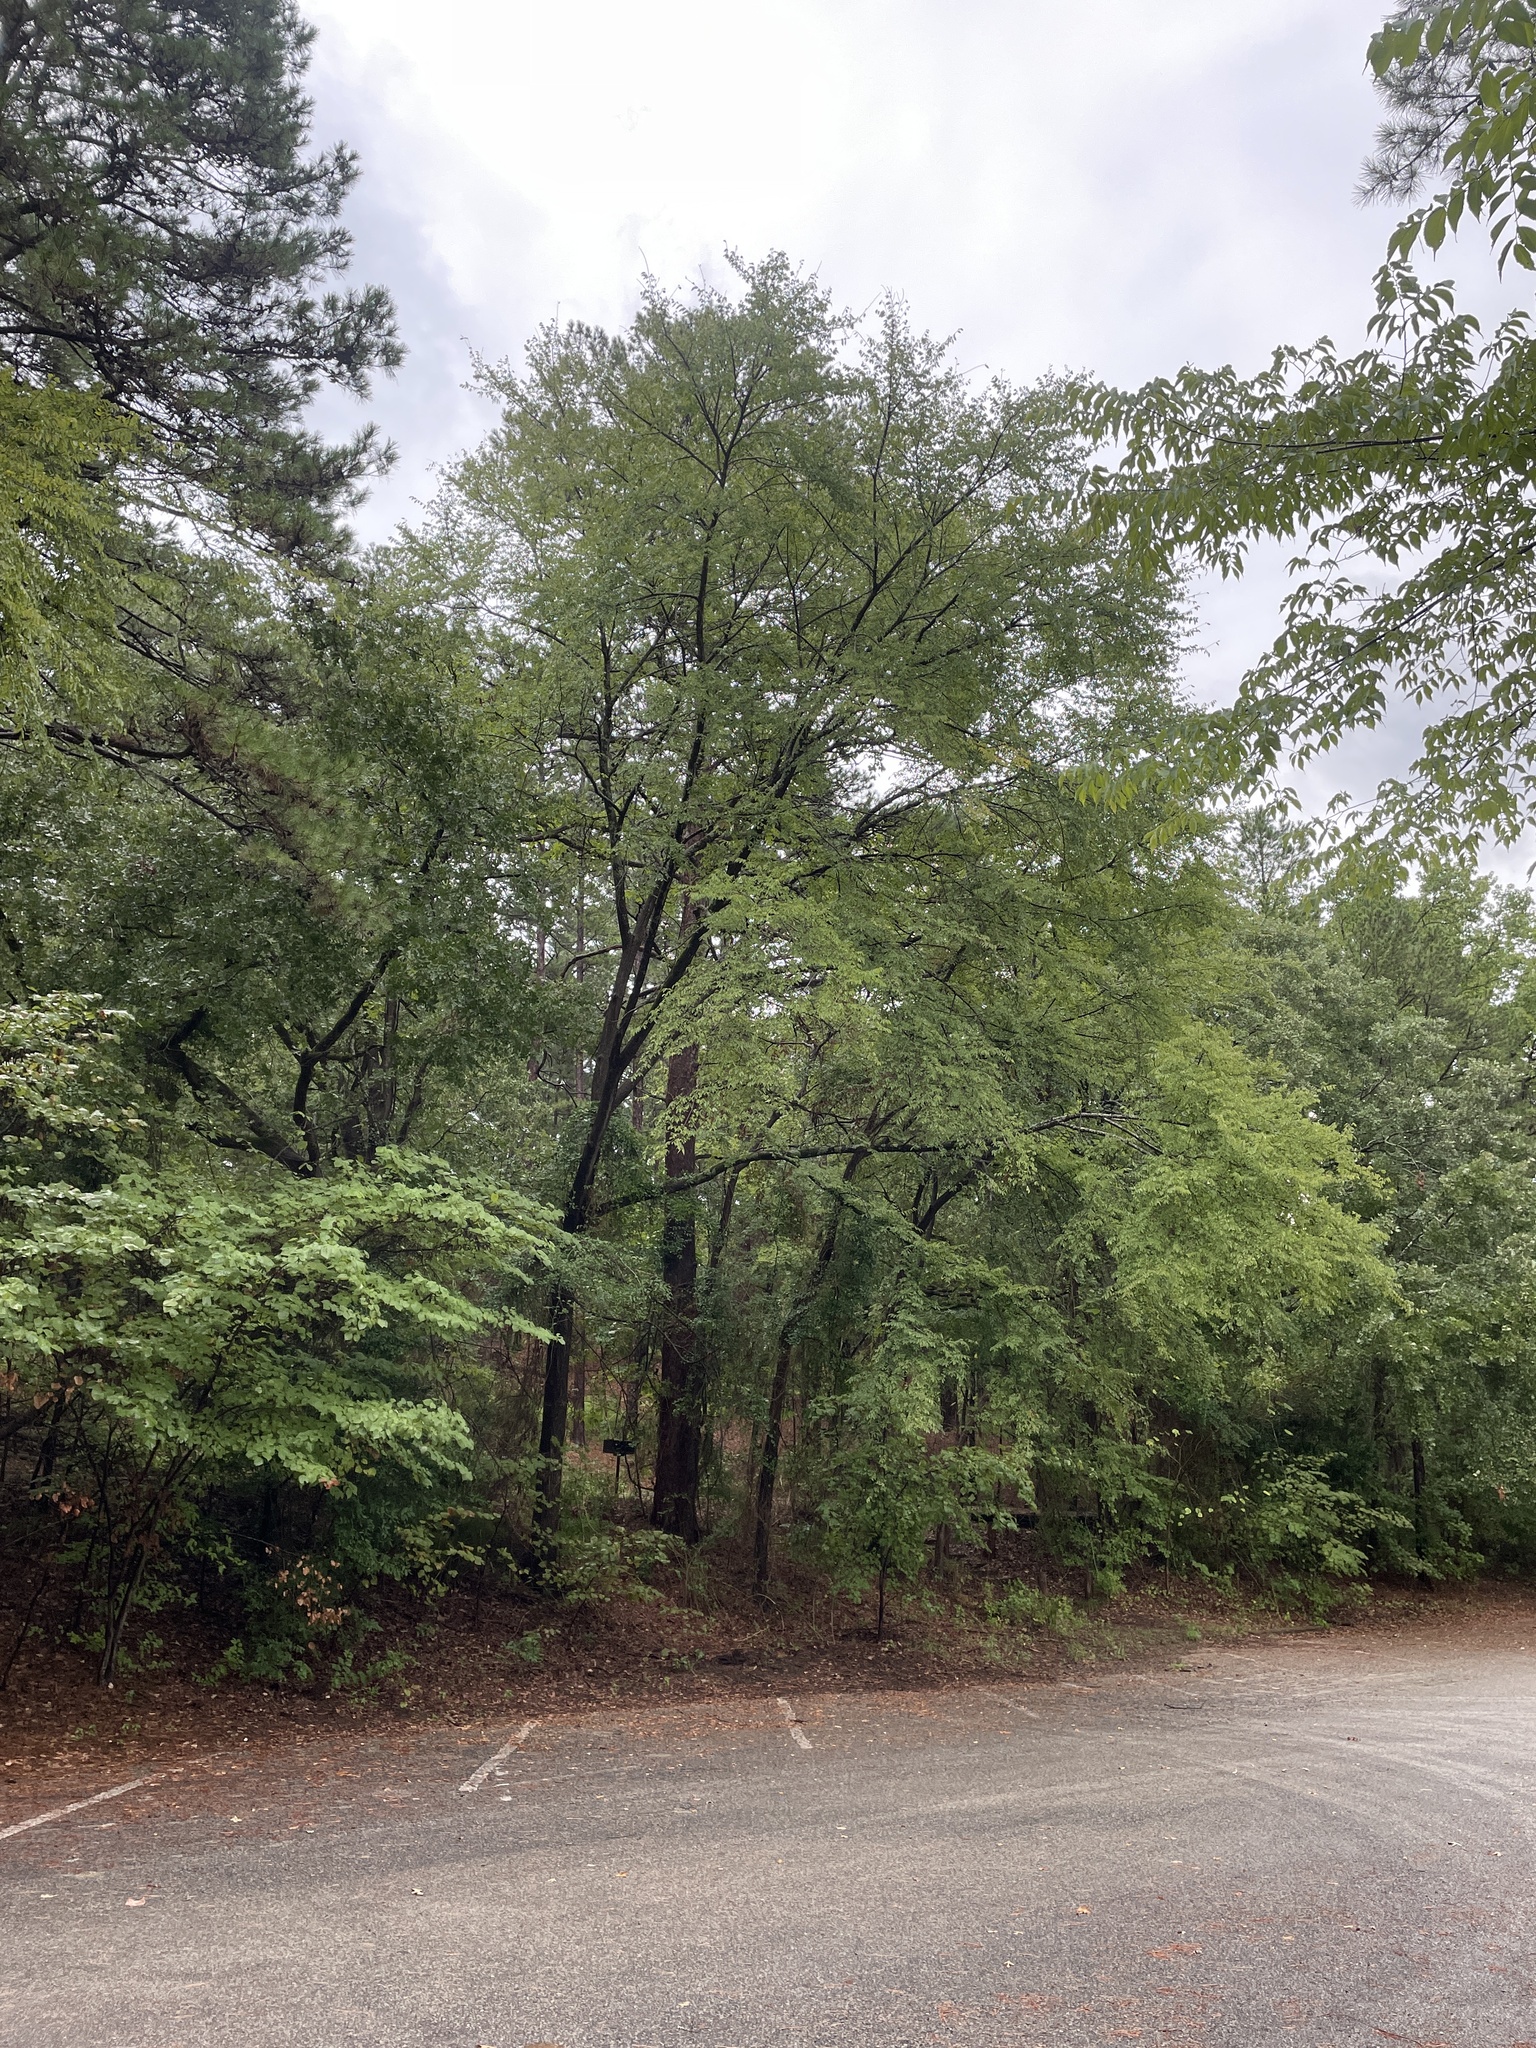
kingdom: Animalia
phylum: Chordata
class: Aves
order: Piciformes
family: Picidae
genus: Leuconotopicus
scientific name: Leuconotopicus villosus
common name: Hairy woodpecker
